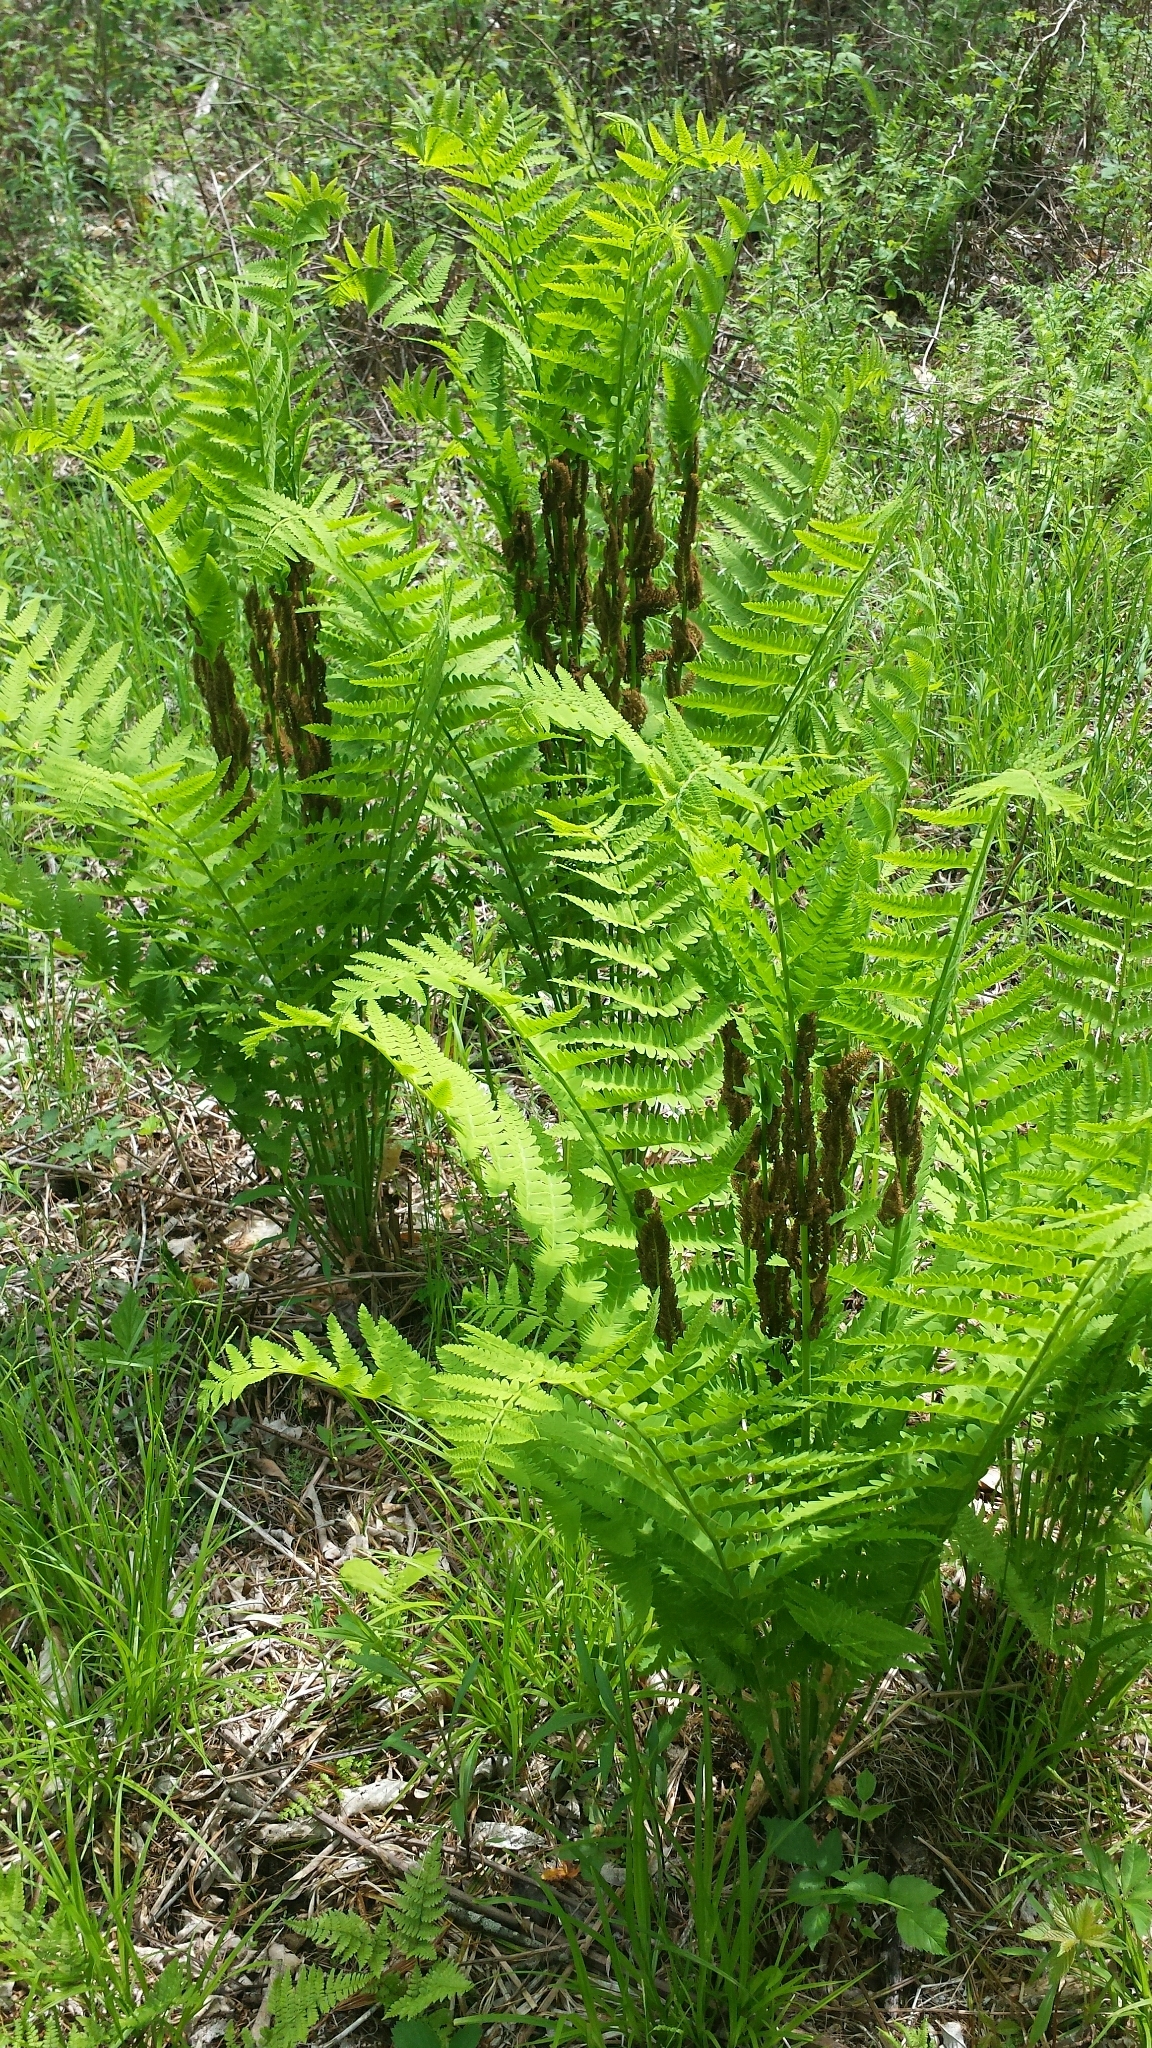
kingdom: Plantae
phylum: Tracheophyta
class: Polypodiopsida
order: Osmundales
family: Osmundaceae
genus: Claytosmunda
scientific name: Claytosmunda claytoniana
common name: Clayton's fern
